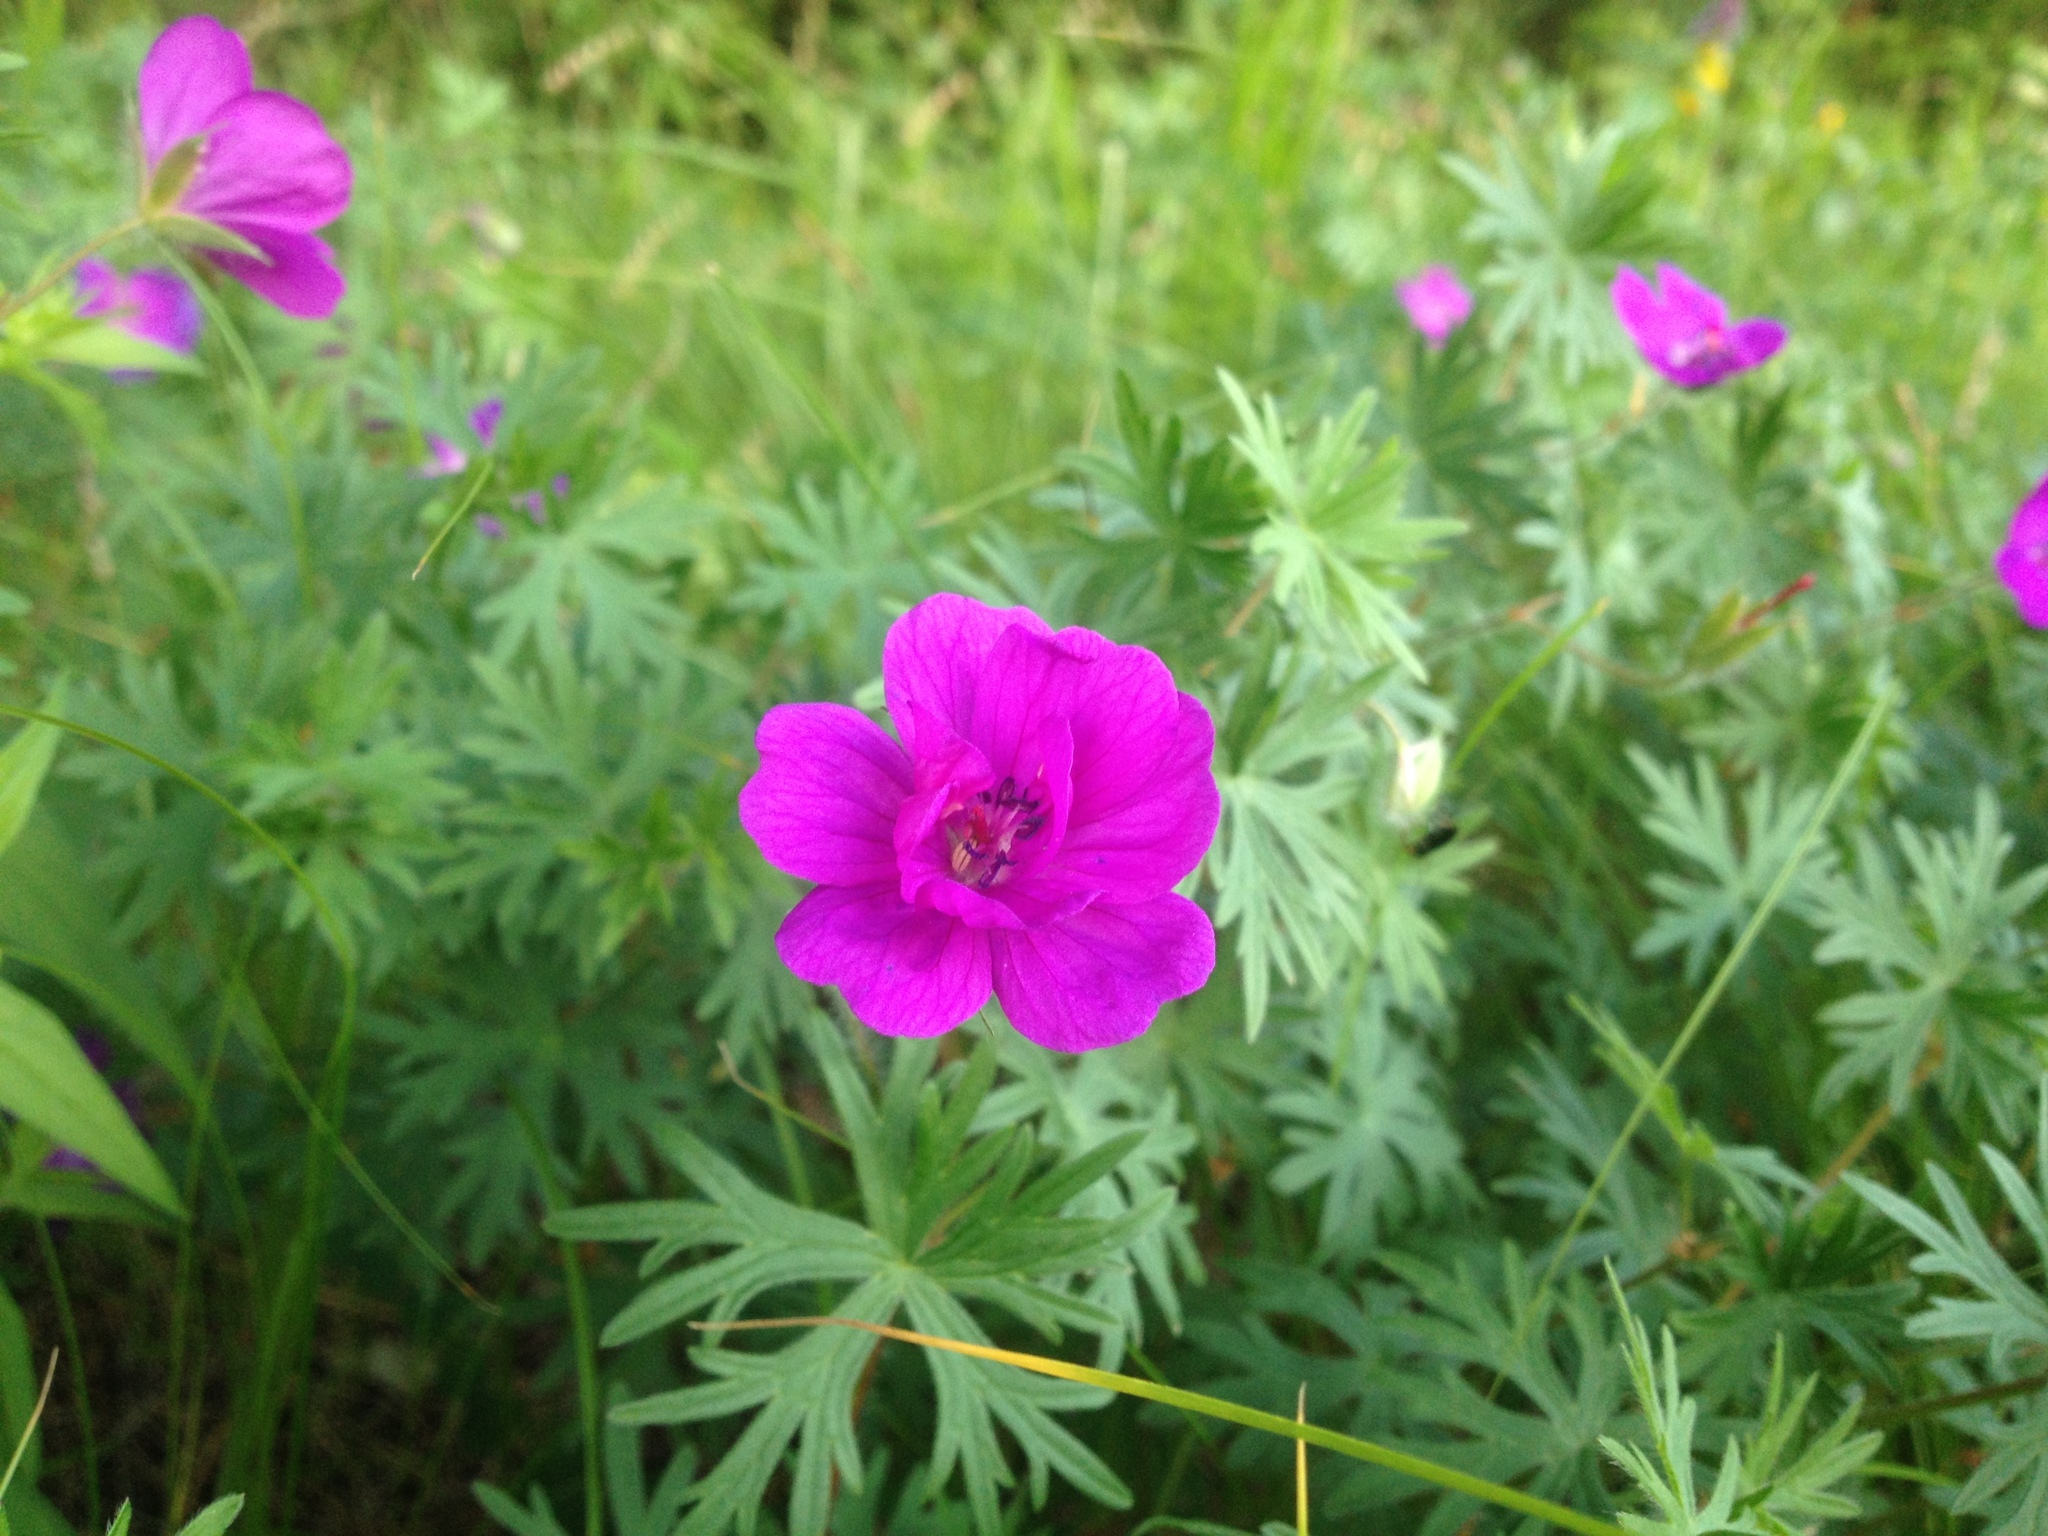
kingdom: Plantae
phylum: Tracheophyta
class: Magnoliopsida
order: Geraniales
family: Geraniaceae
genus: Geranium
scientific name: Geranium sanguineum
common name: Bloody crane's-bill
